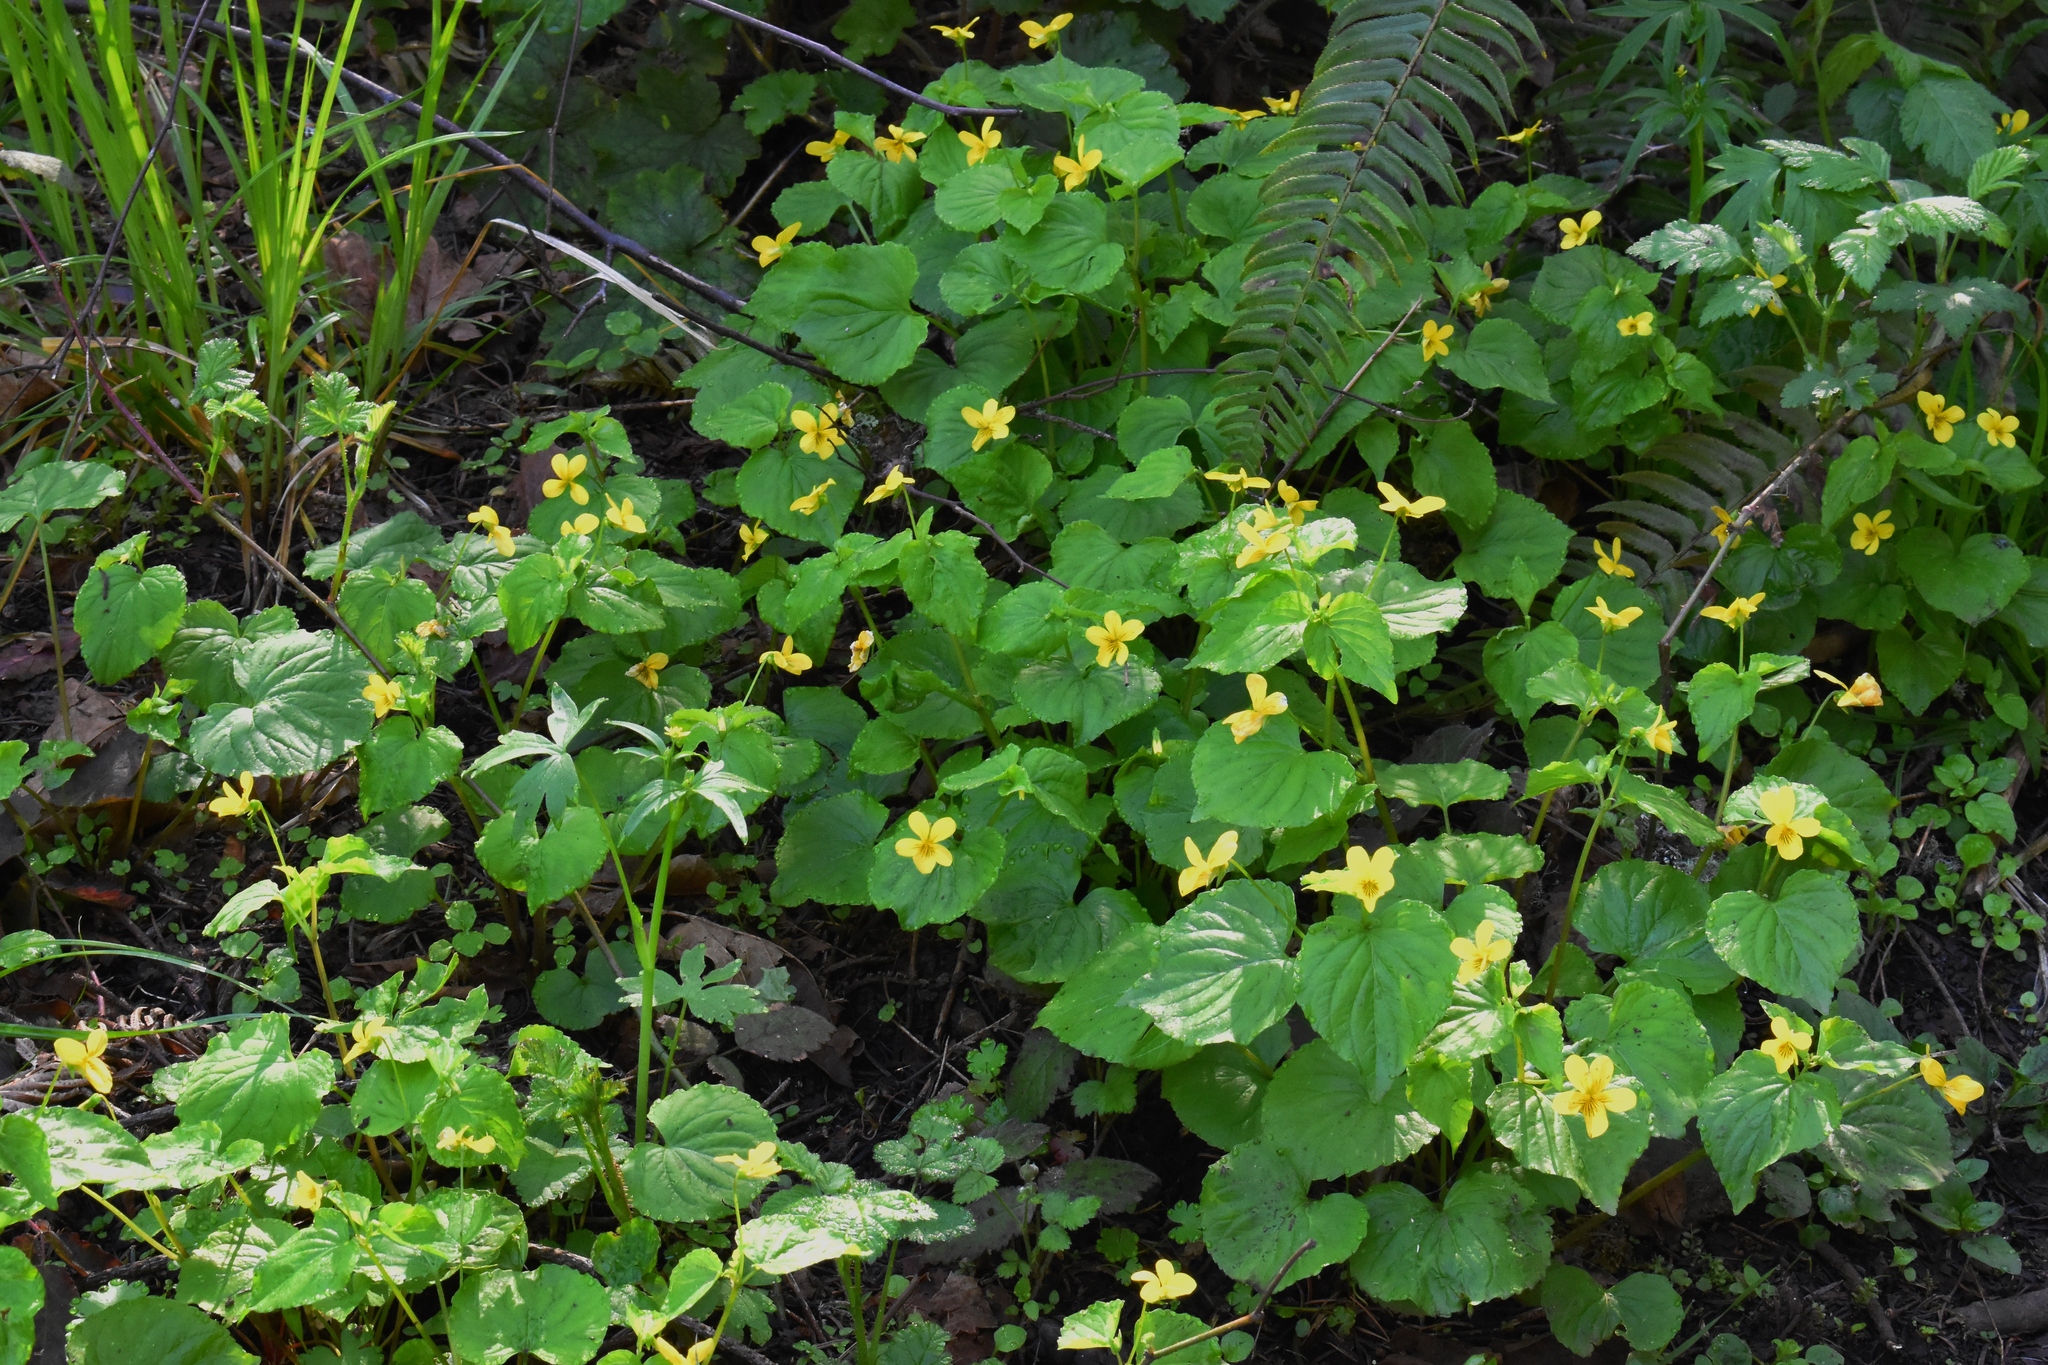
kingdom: Plantae
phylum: Tracheophyta
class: Magnoliopsida
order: Malpighiales
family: Violaceae
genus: Viola
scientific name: Viola glabella
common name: Stream violet
